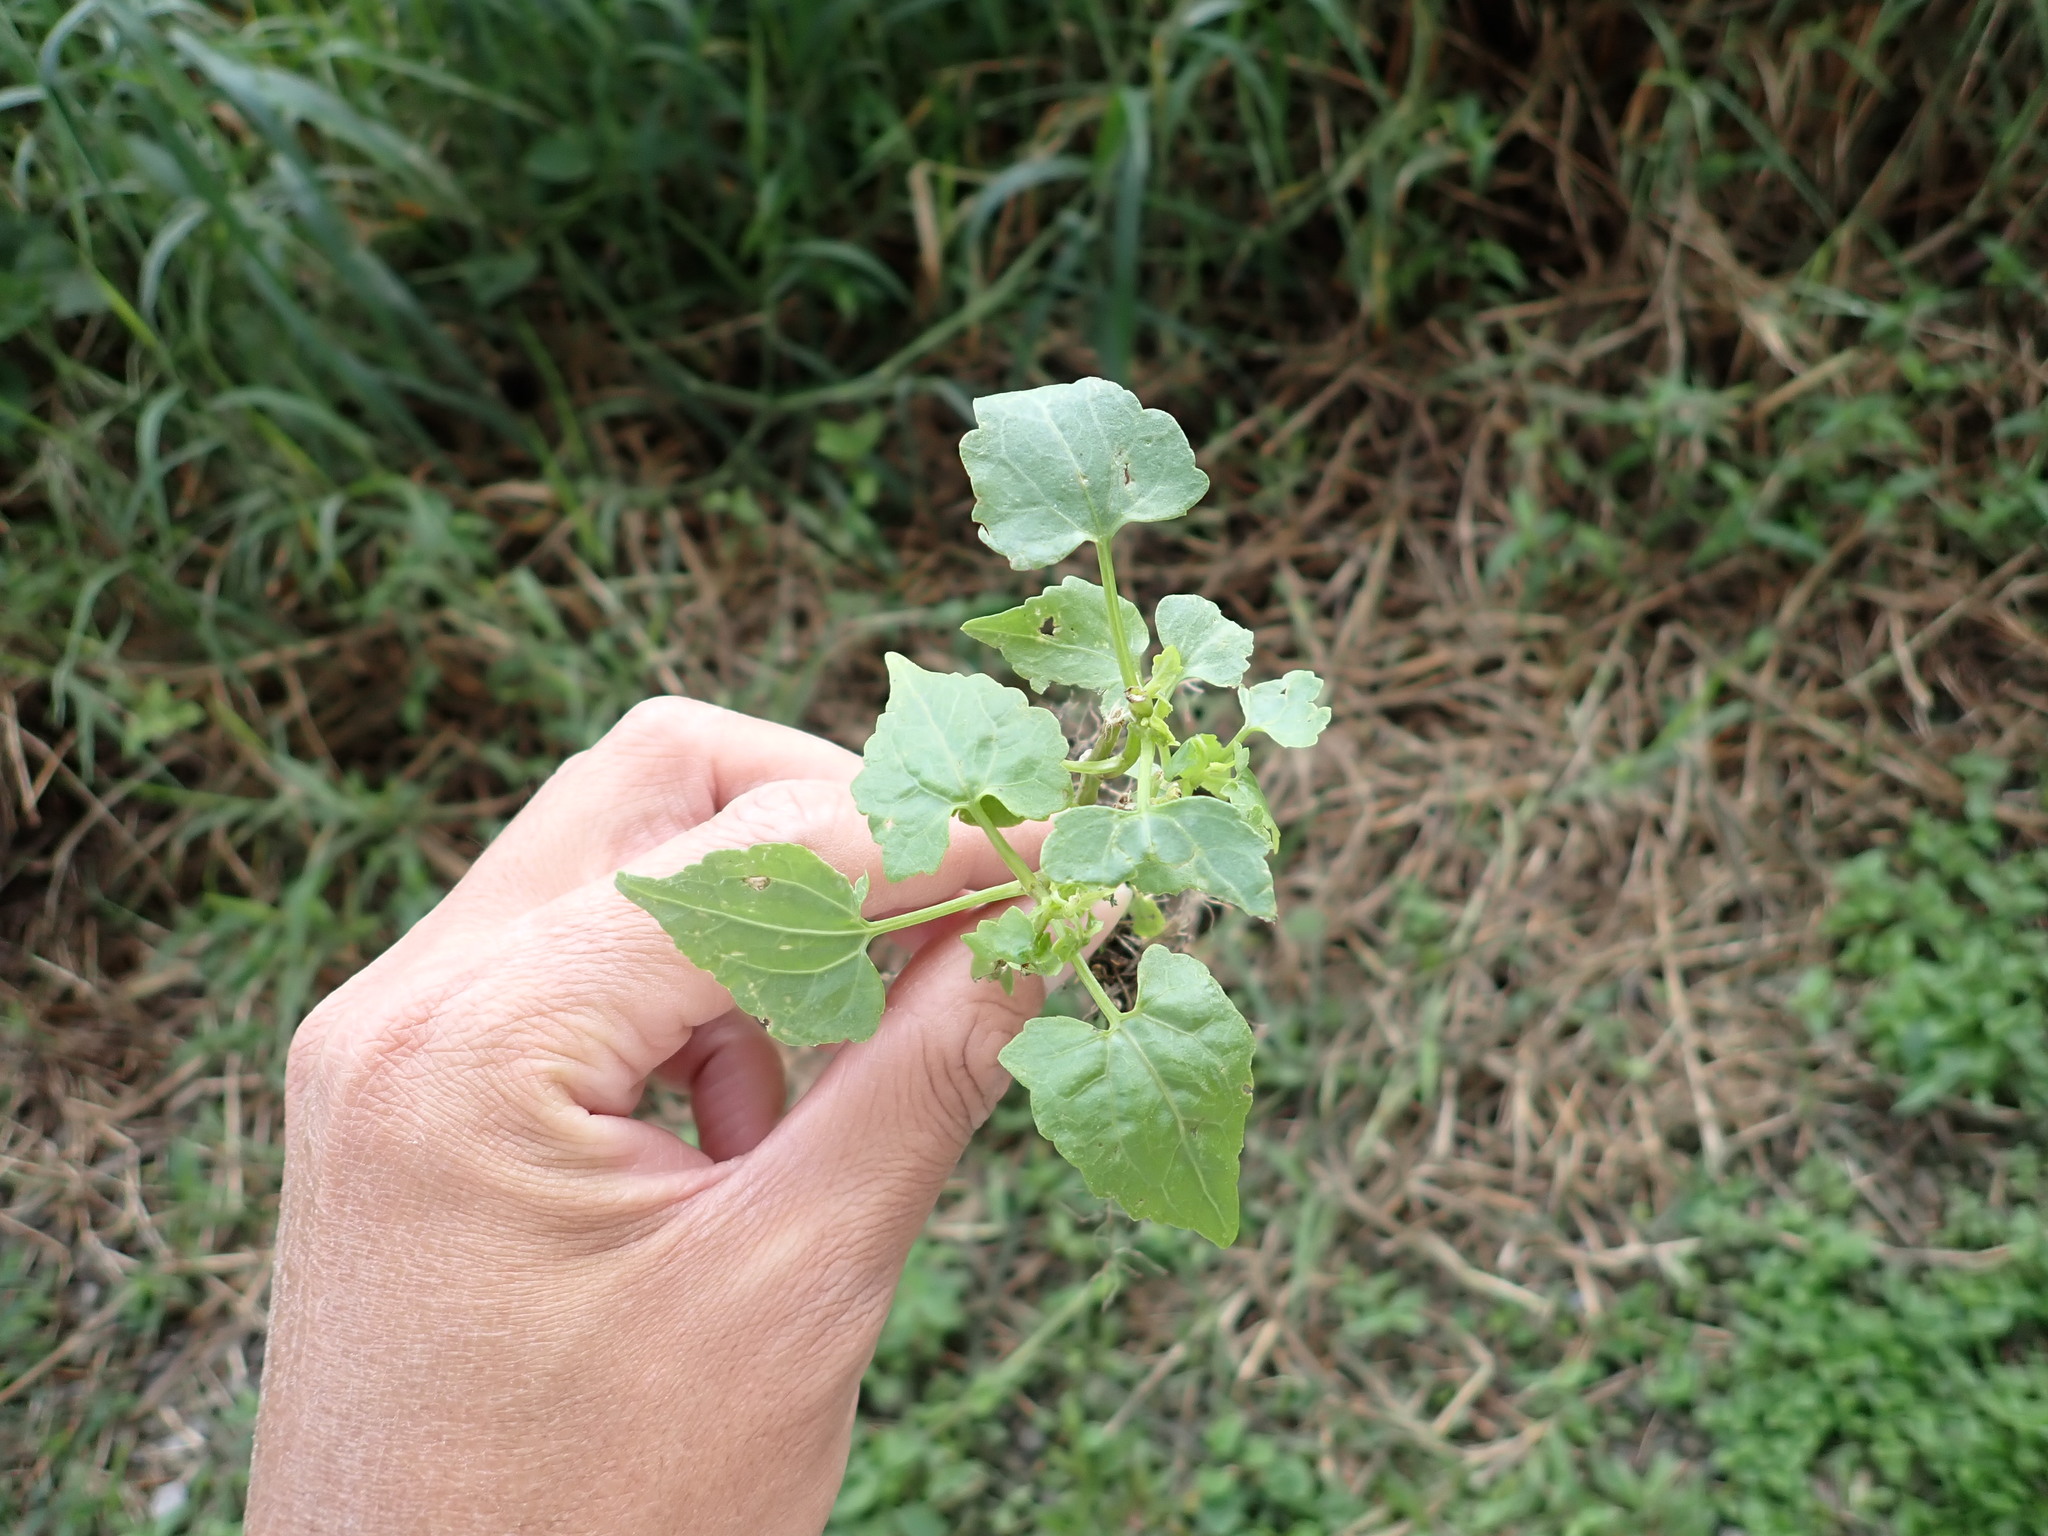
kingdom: Plantae
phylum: Tracheophyta
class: Magnoliopsida
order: Asterales
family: Asteraceae
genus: Mikania
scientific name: Mikania micrantha
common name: Mile-a-minute
